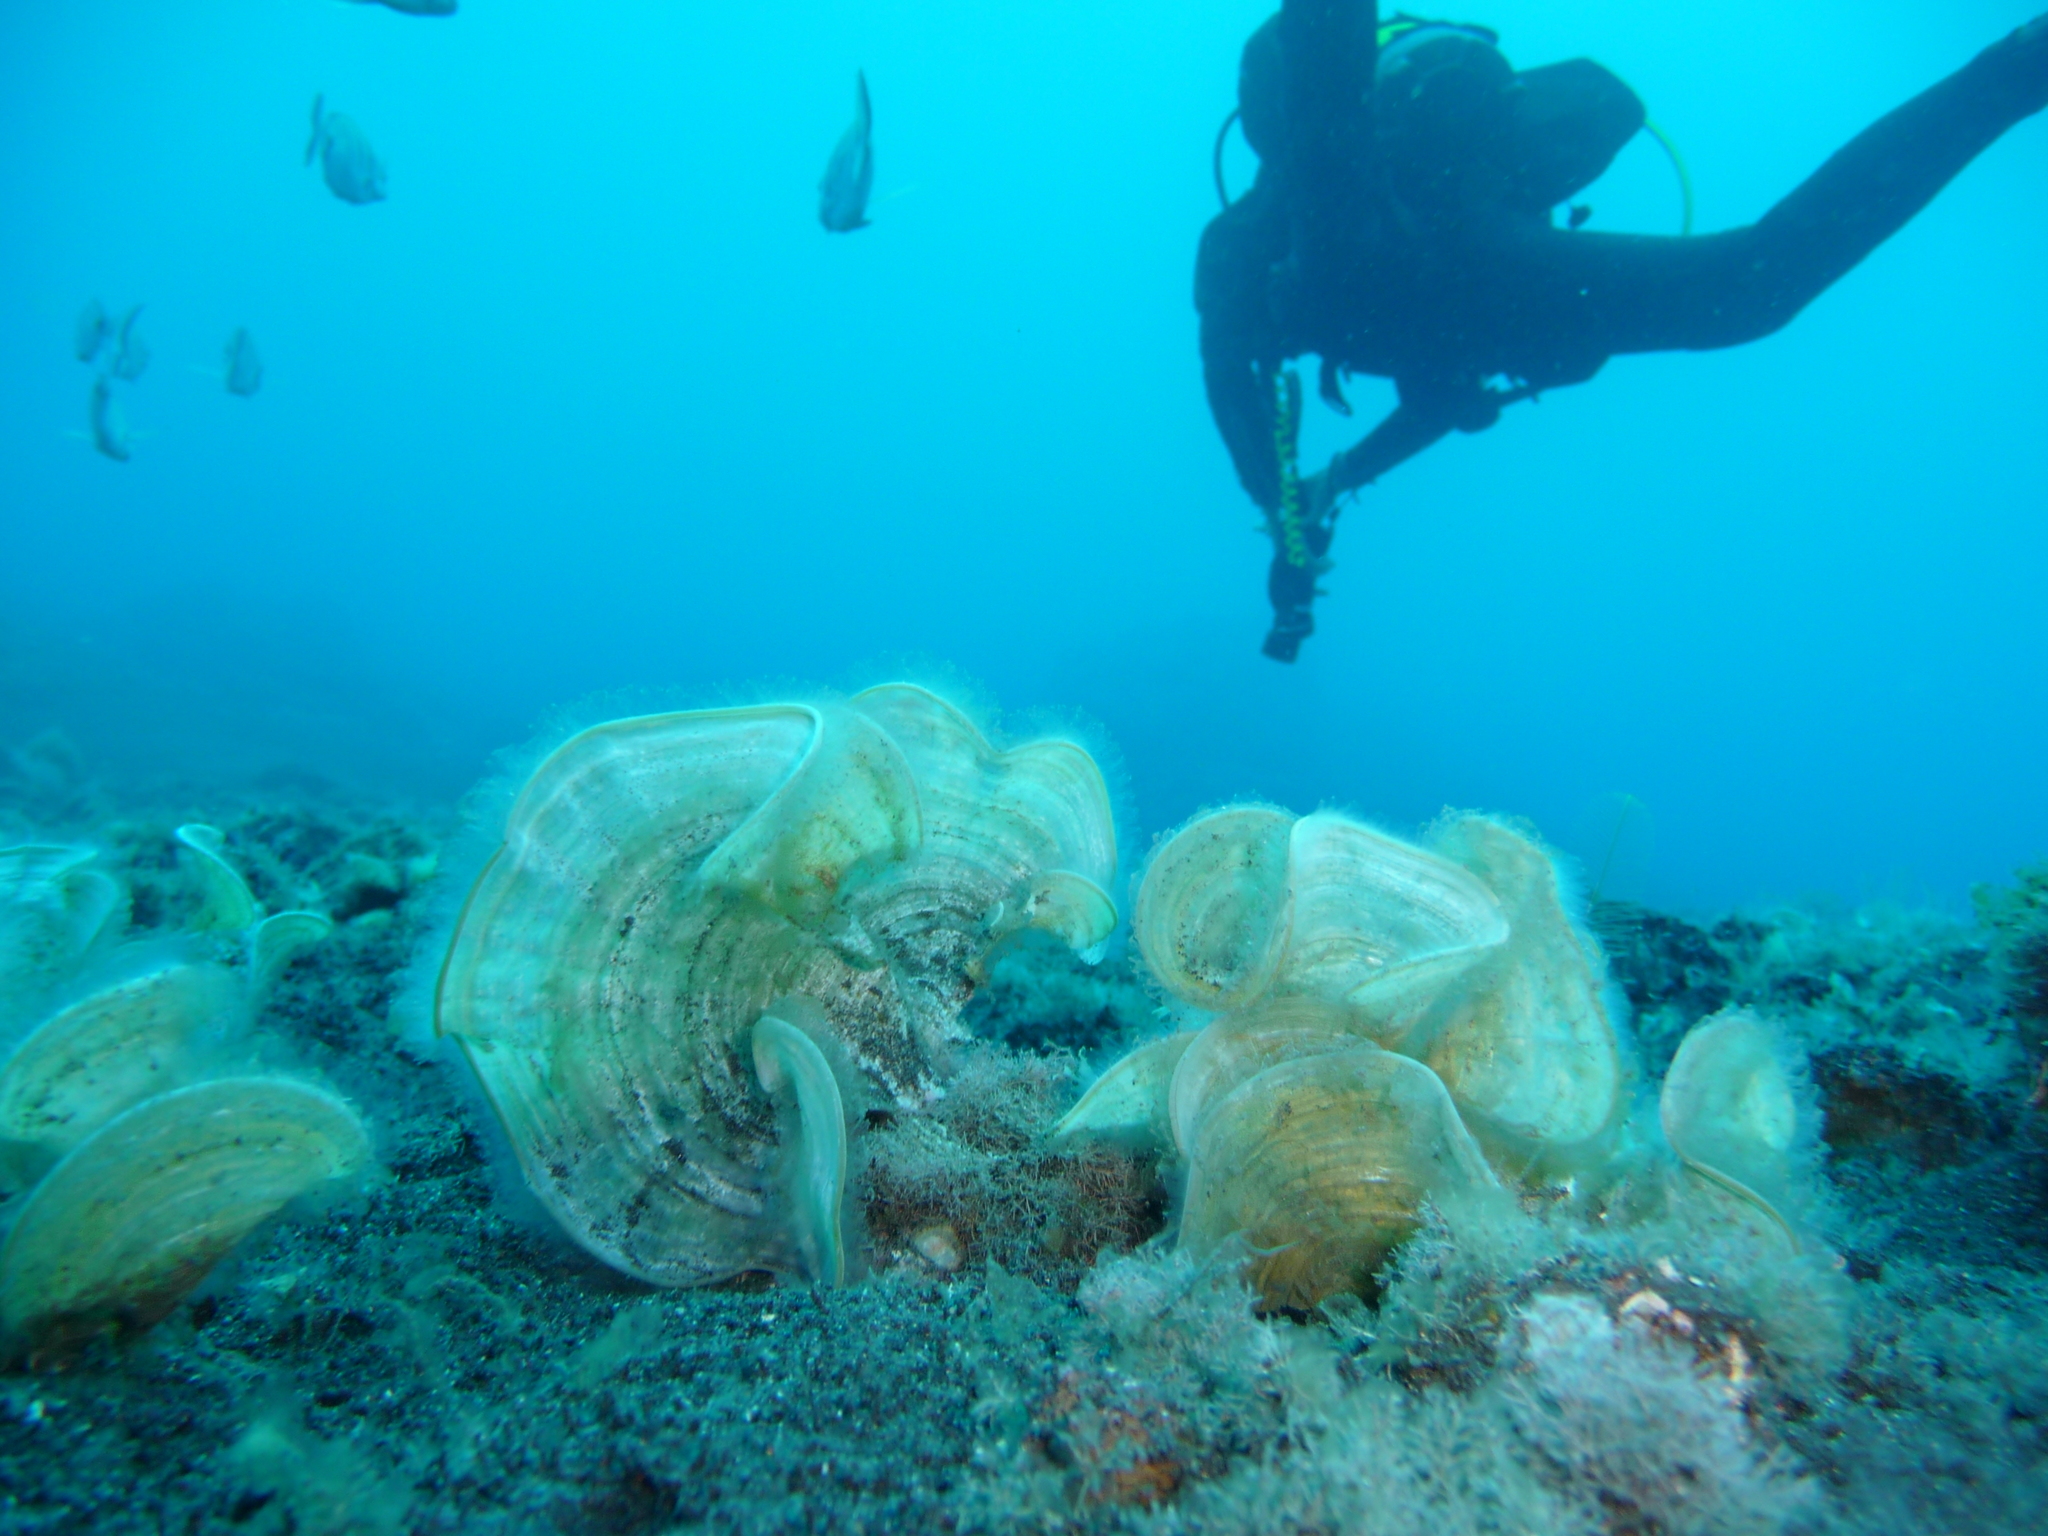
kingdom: Chromista
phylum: Ochrophyta
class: Phaeophyceae
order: Dictyotales
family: Dictyotaceae
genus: Padina
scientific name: Padina pavonica
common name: Turkey feather alga
